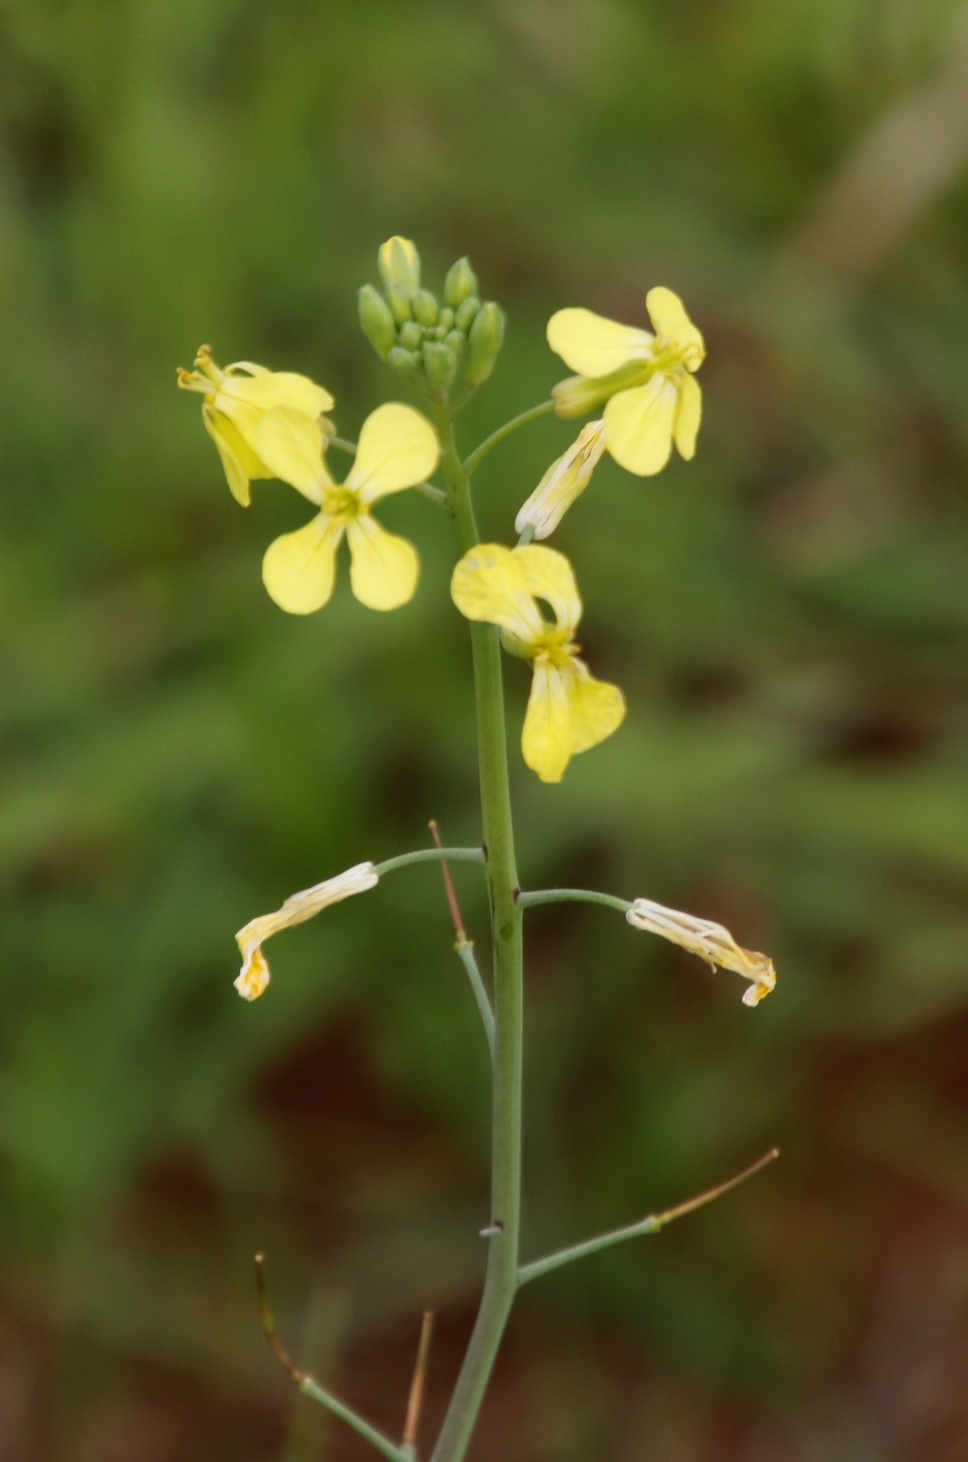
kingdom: Plantae
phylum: Tracheophyta
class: Magnoliopsida
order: Brassicales
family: Brassicaceae
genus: Raphanus
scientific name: Raphanus raphanistrum
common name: Wild radish
